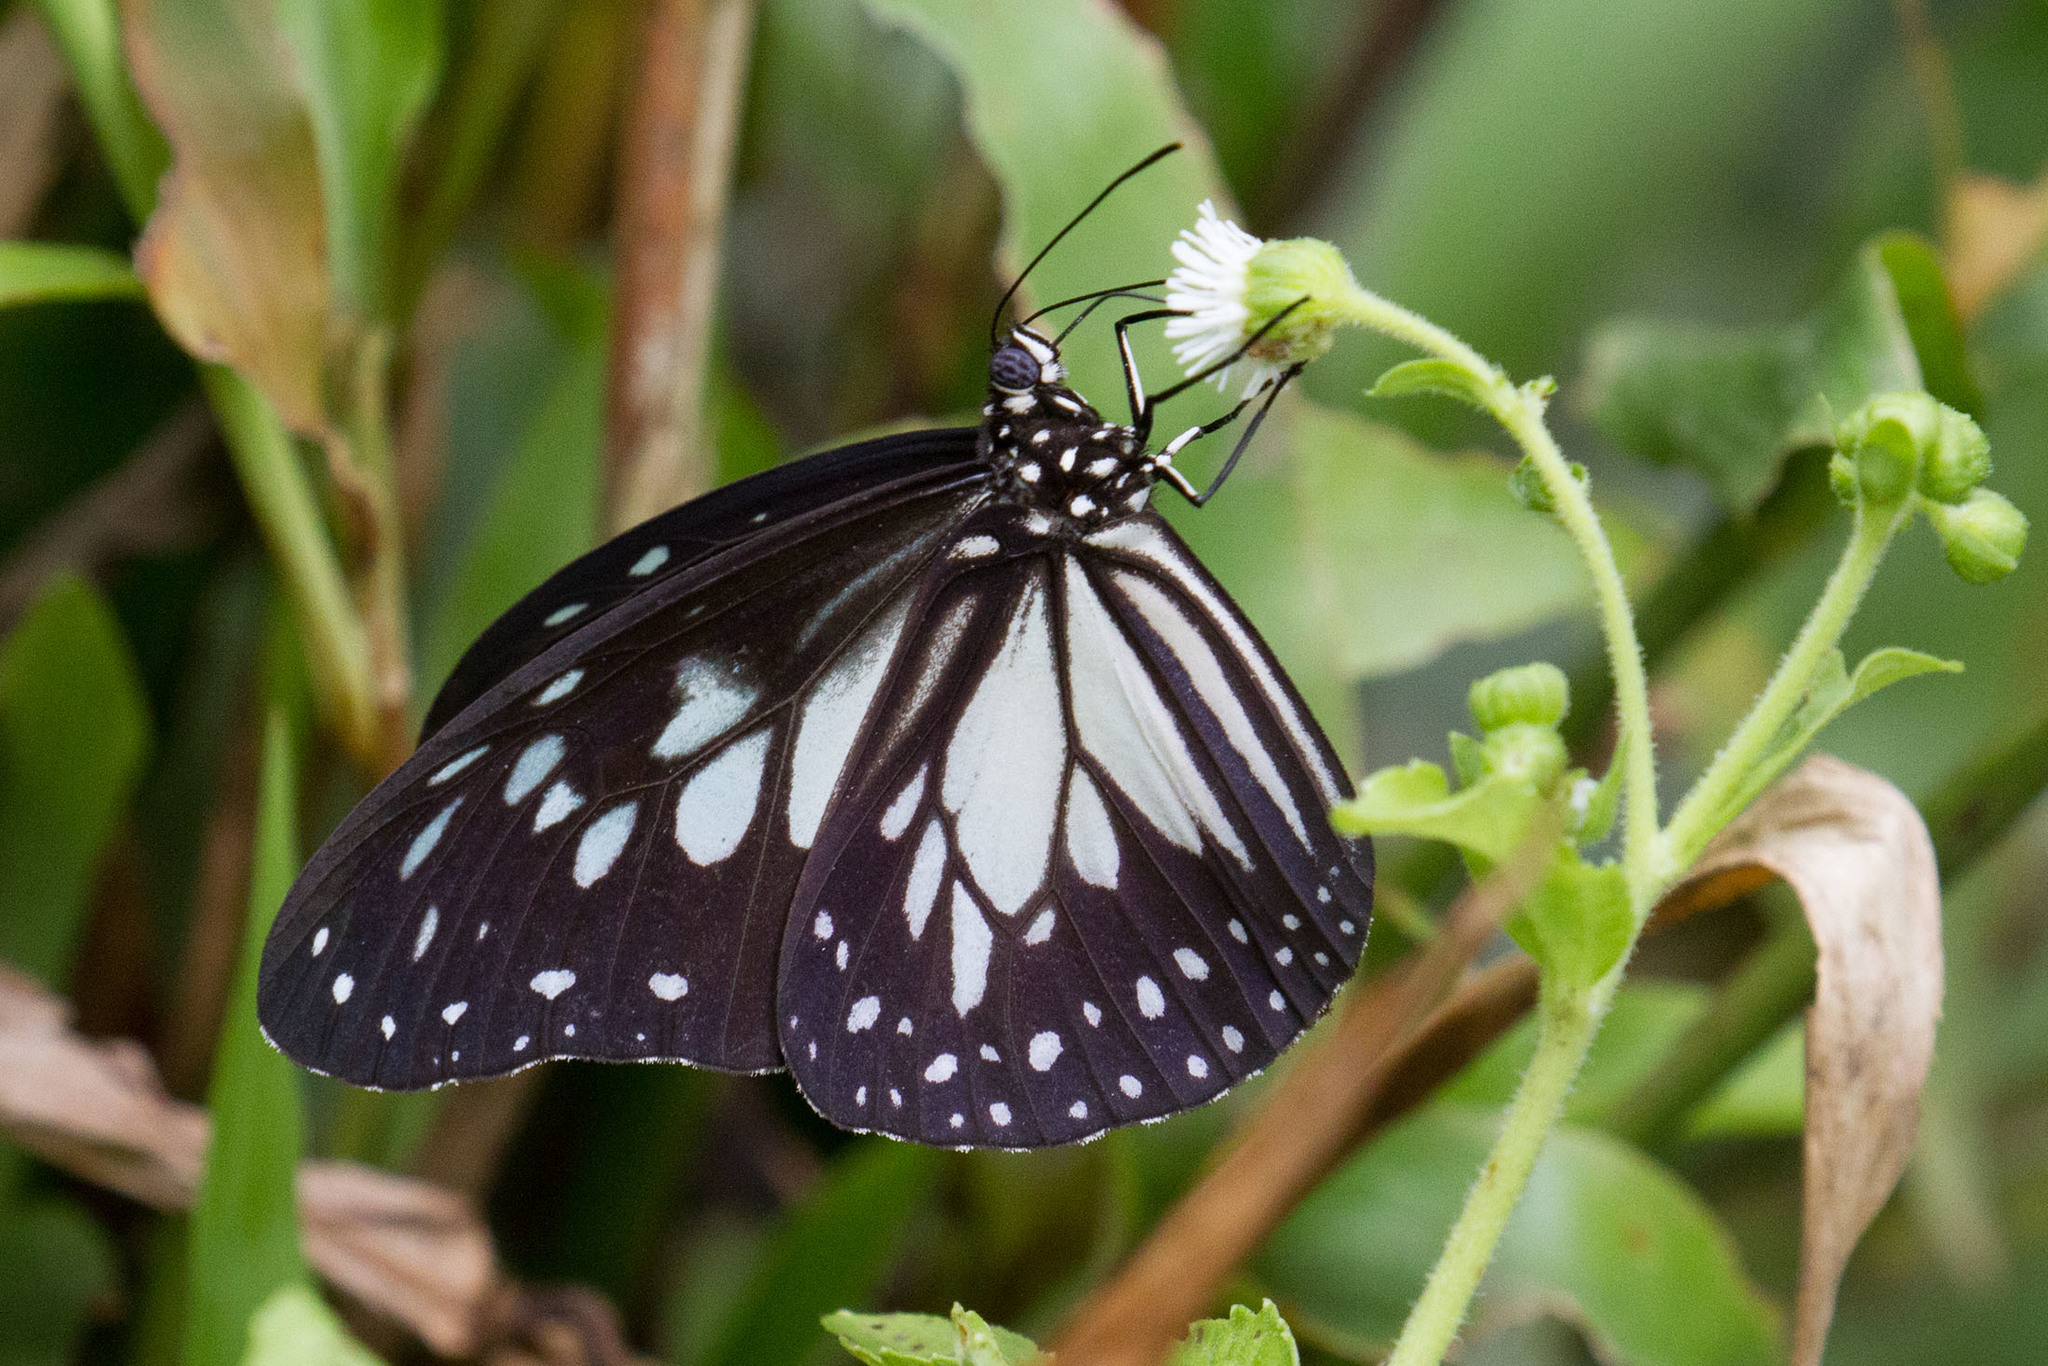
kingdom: Animalia
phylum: Arthropoda
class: Insecta
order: Lepidoptera
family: Nymphalidae
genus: Ideopsis
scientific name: Ideopsis juventa
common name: Grey glassy tiger
